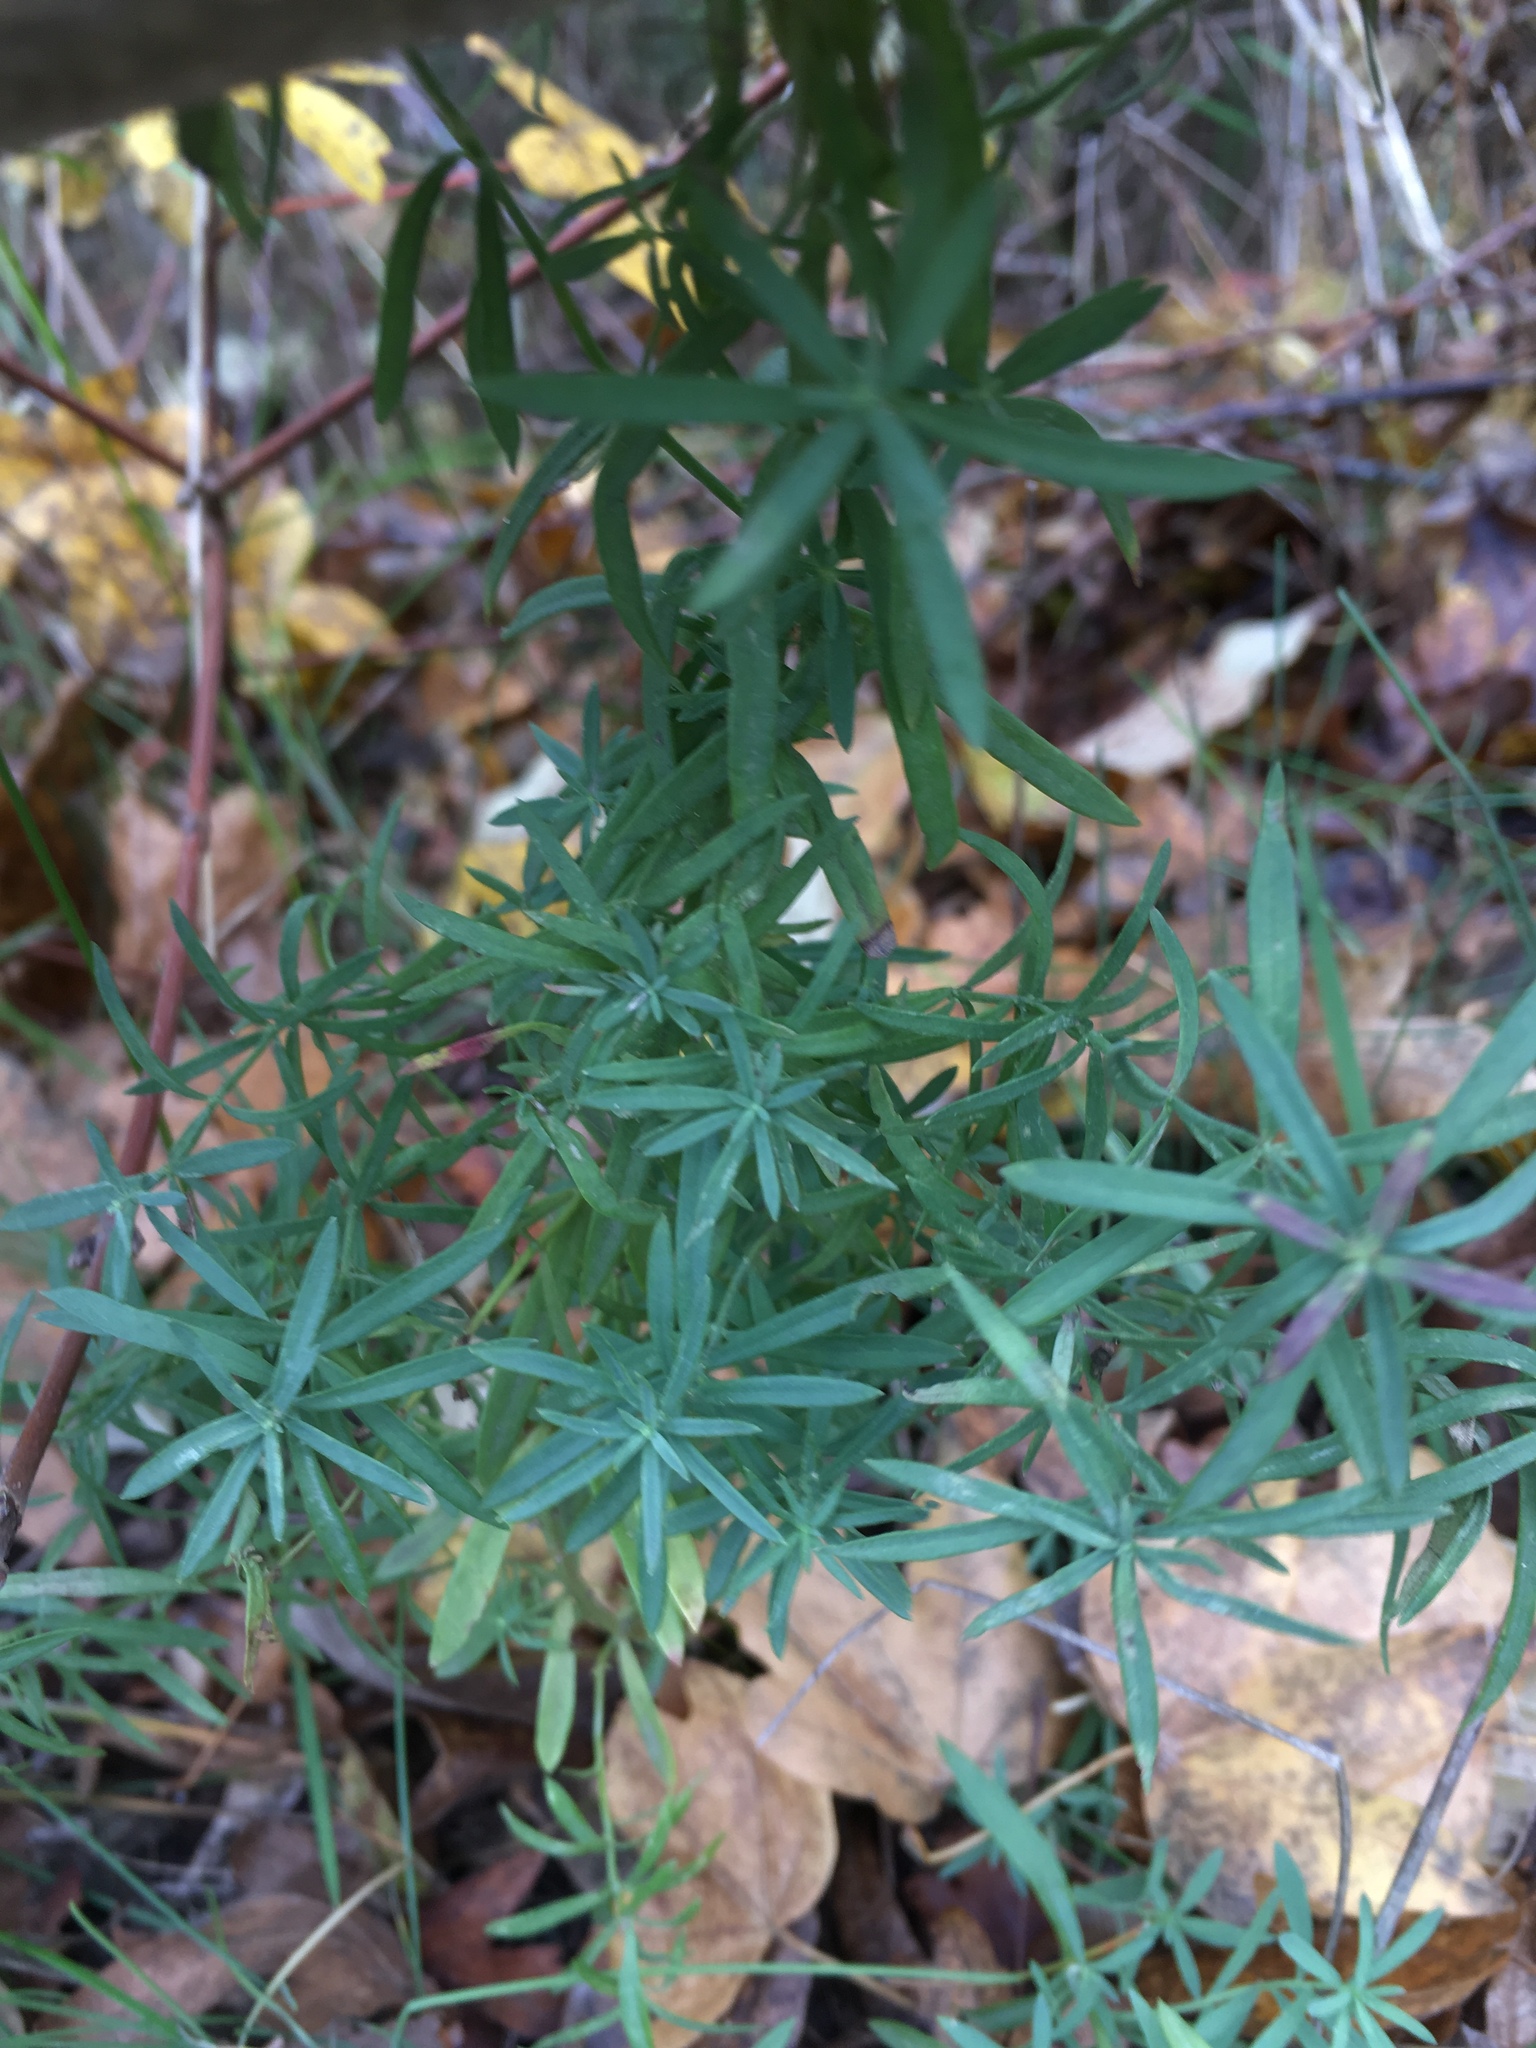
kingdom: Plantae
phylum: Tracheophyta
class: Magnoliopsida
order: Lamiales
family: Plantaginaceae
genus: Linaria
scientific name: Linaria vulgaris
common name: Butter and eggs
